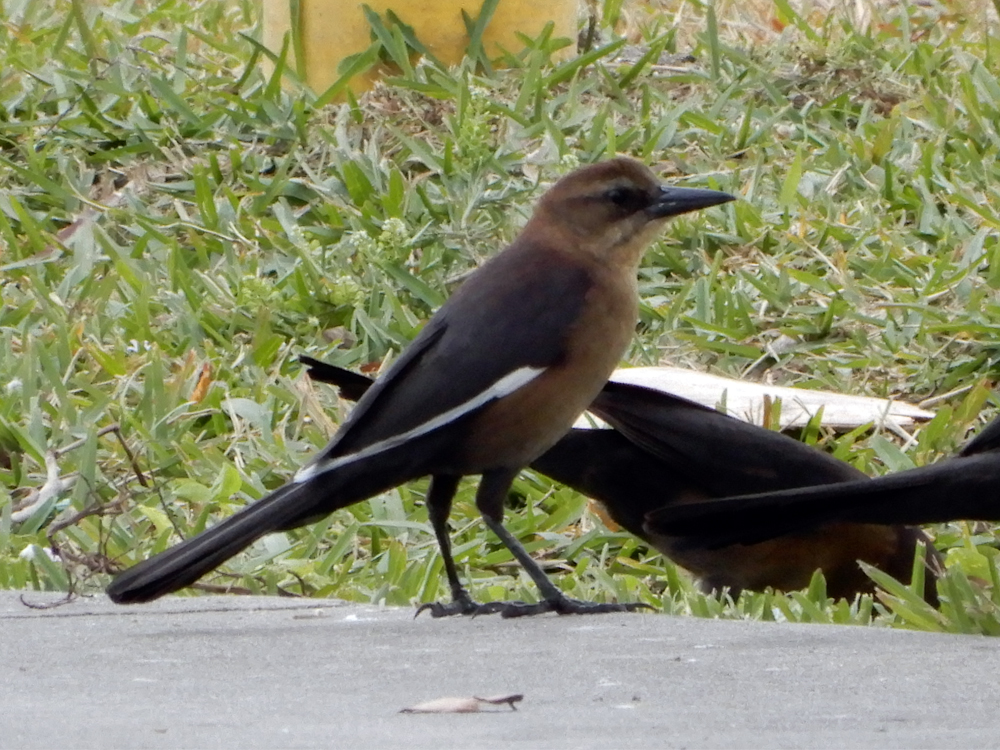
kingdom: Animalia
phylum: Chordata
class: Aves
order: Passeriformes
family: Icteridae
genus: Quiscalus
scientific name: Quiscalus major
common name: Boat-tailed grackle
